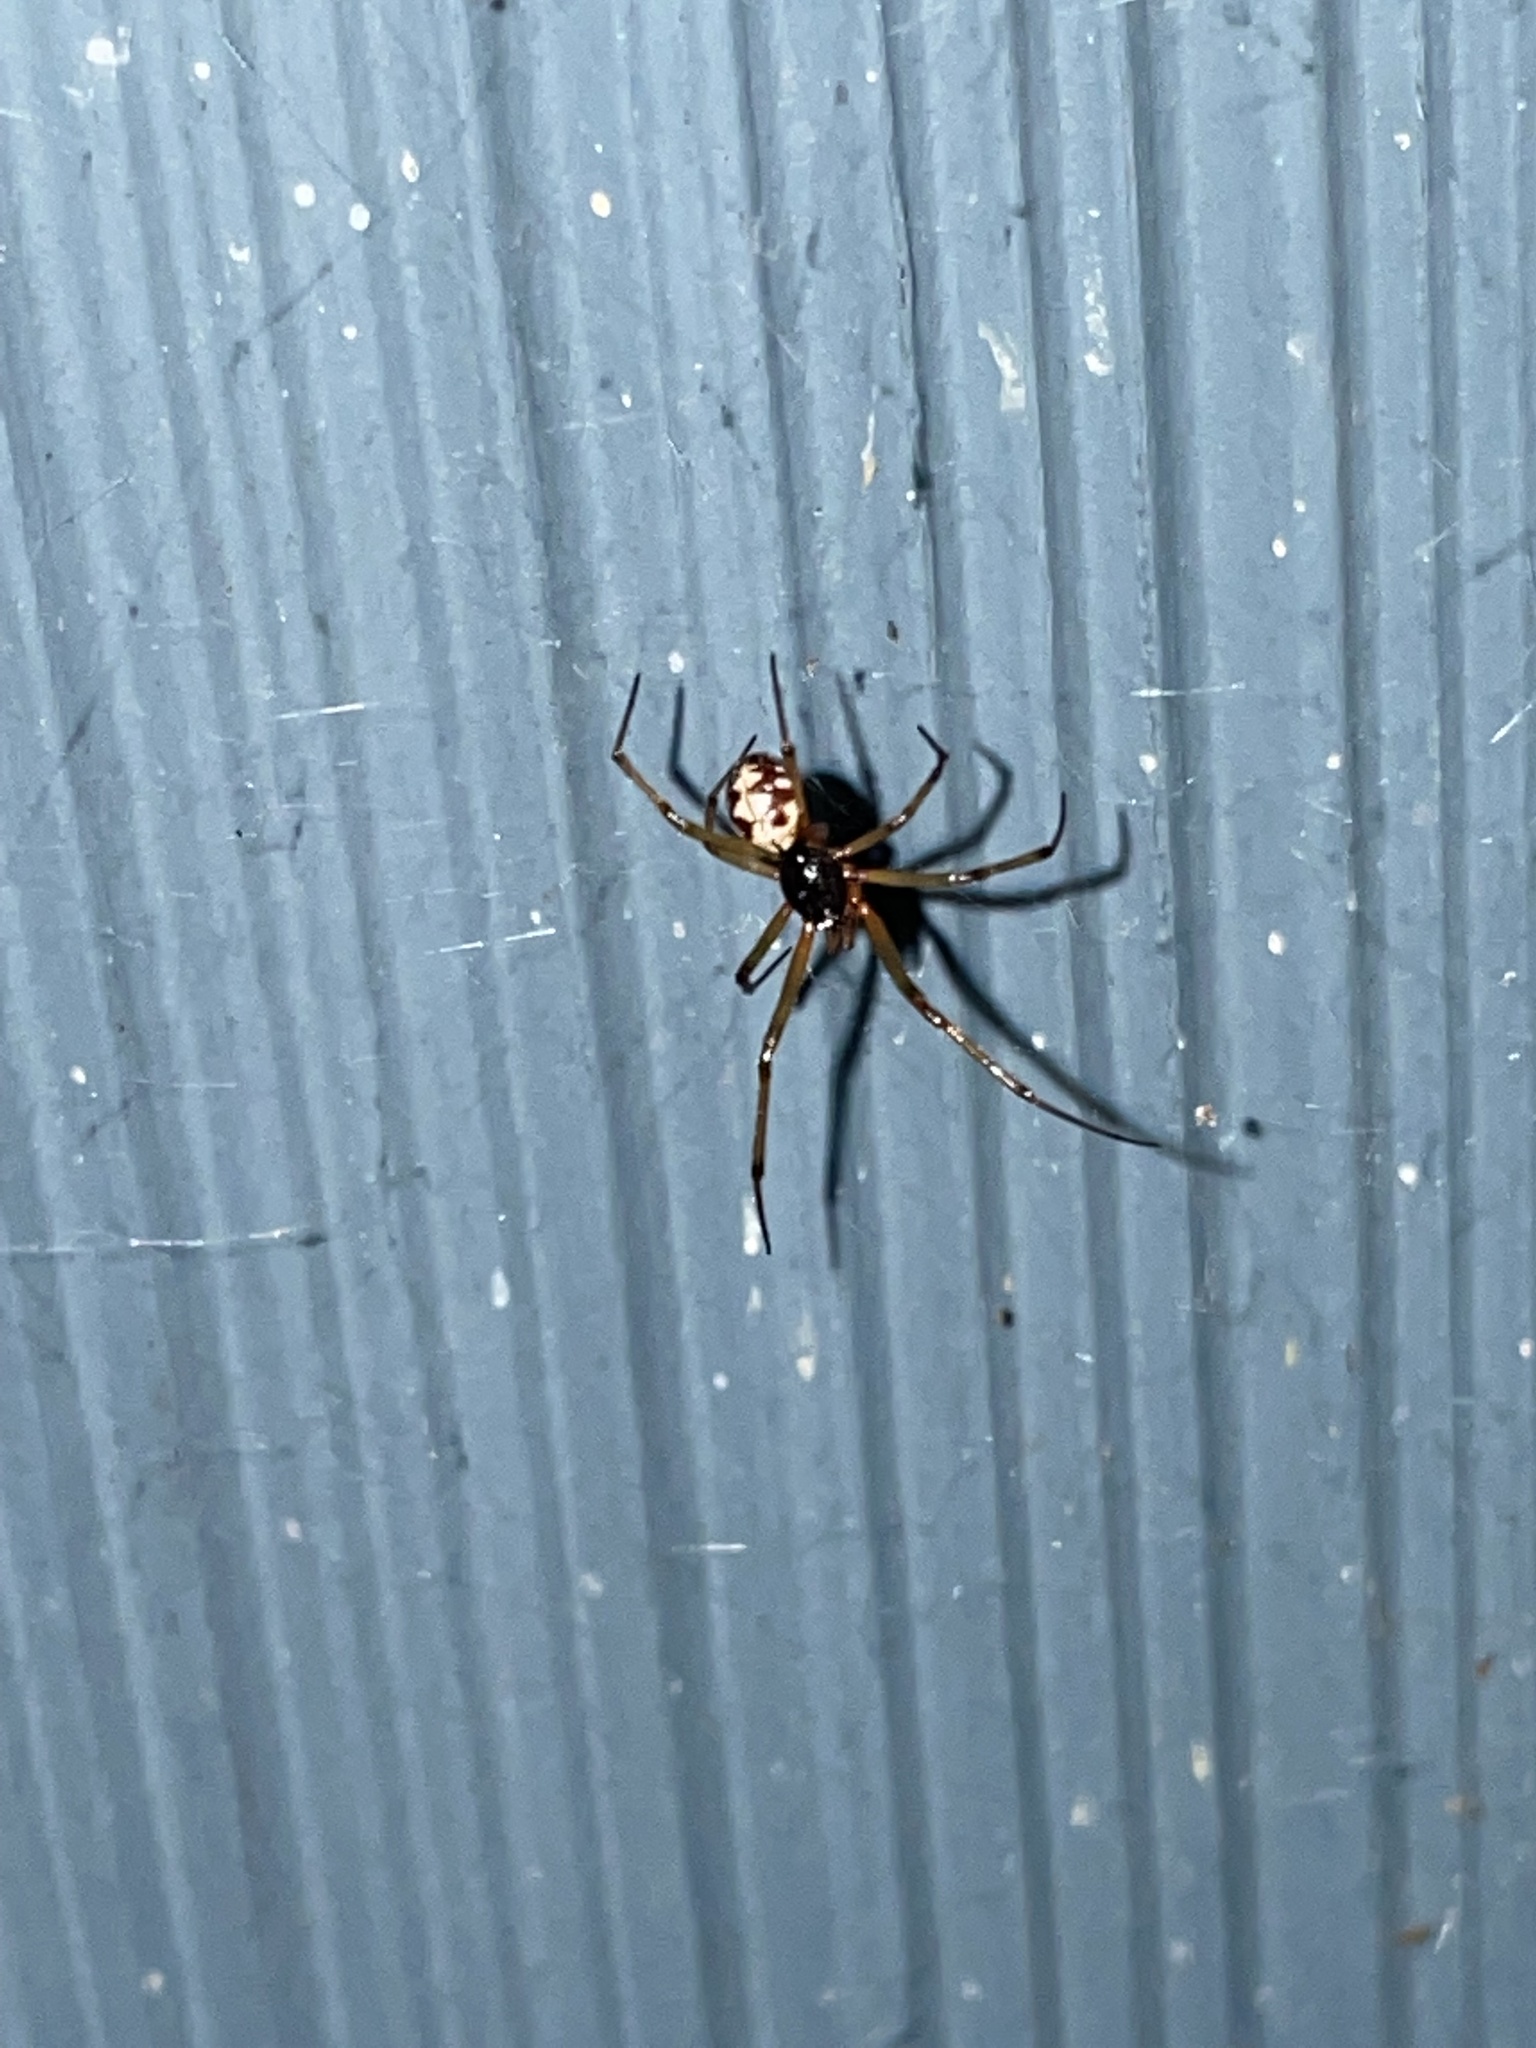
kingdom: Animalia
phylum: Arthropoda
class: Arachnida
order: Araneae
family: Theridiidae
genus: Steatoda
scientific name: Steatoda triangulosa
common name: Triangulate bud spider
